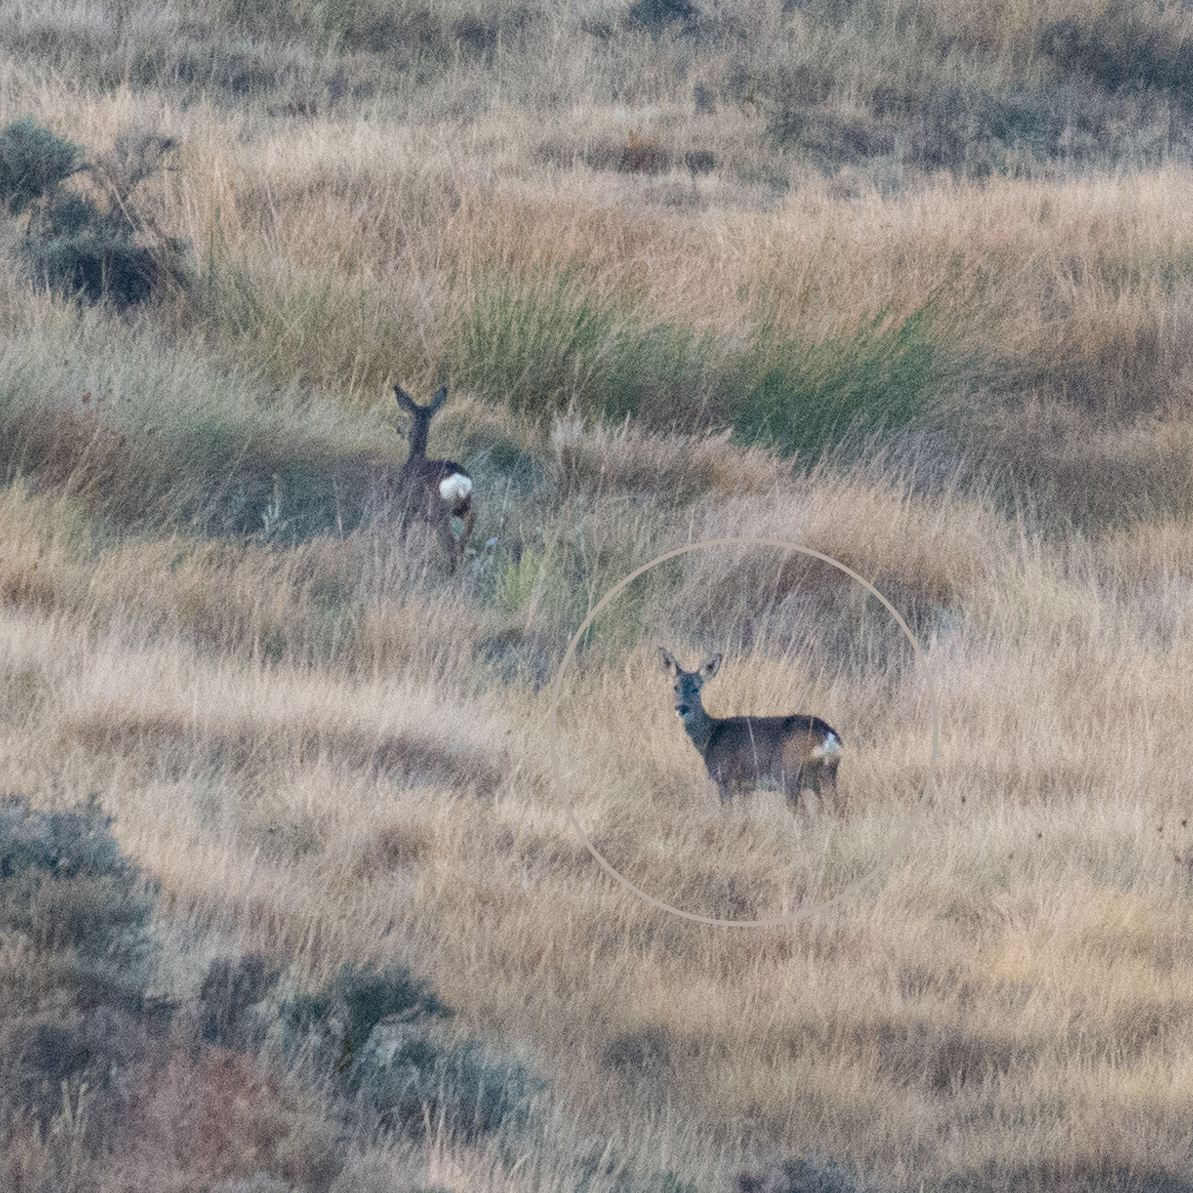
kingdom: Animalia
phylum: Chordata
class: Mammalia
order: Artiodactyla
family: Cervidae
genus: Capreolus
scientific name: Capreolus capreolus
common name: Western roe deer
